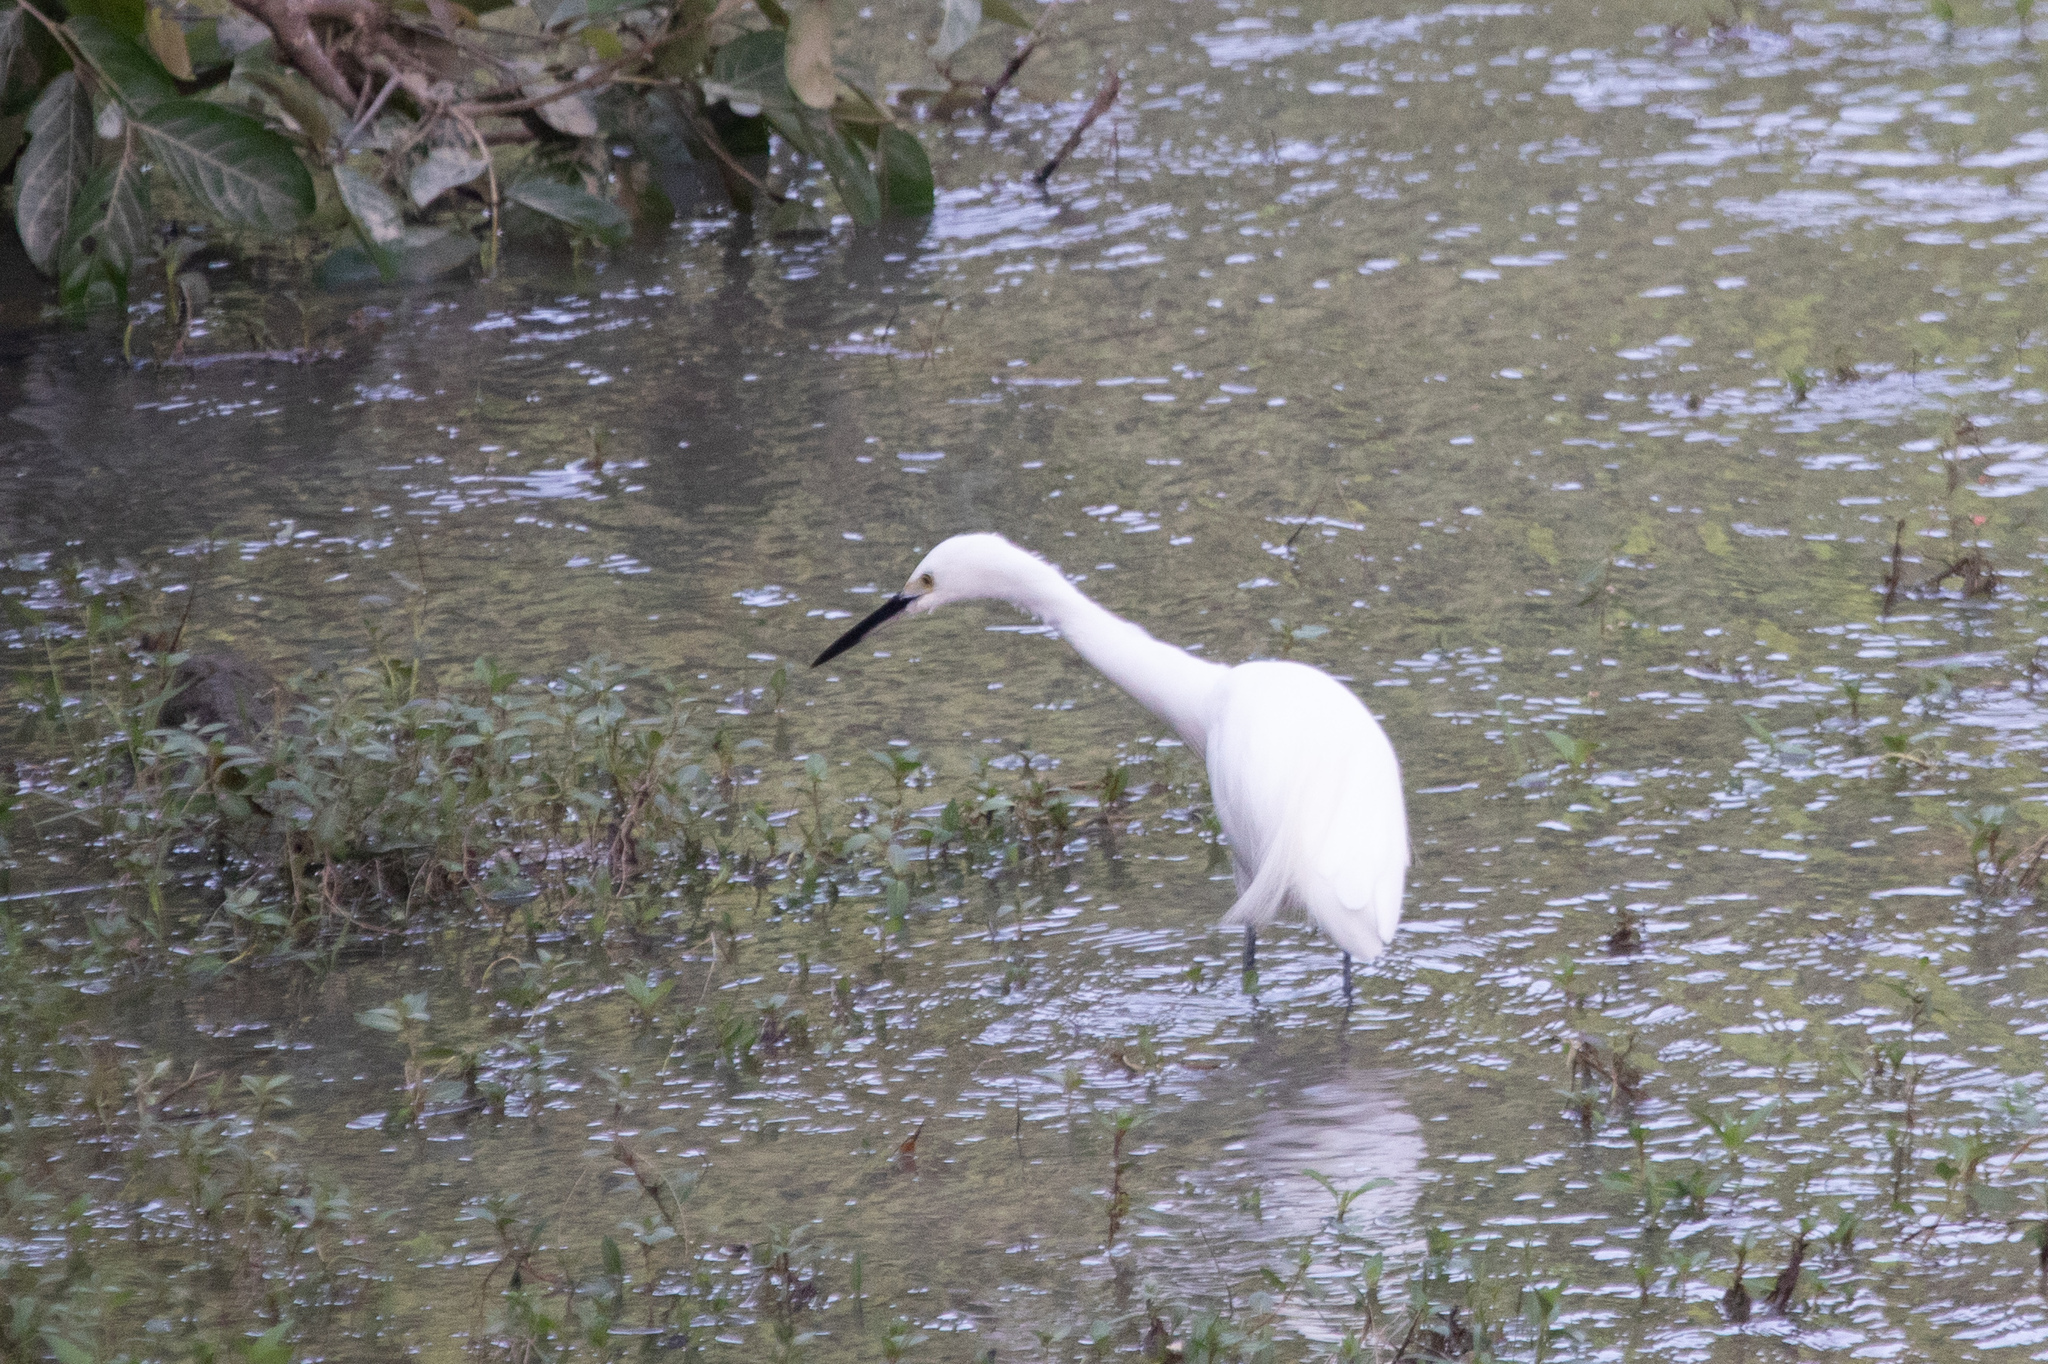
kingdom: Animalia
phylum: Chordata
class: Aves
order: Pelecaniformes
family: Ardeidae
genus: Egretta
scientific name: Egretta garzetta
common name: Little egret
